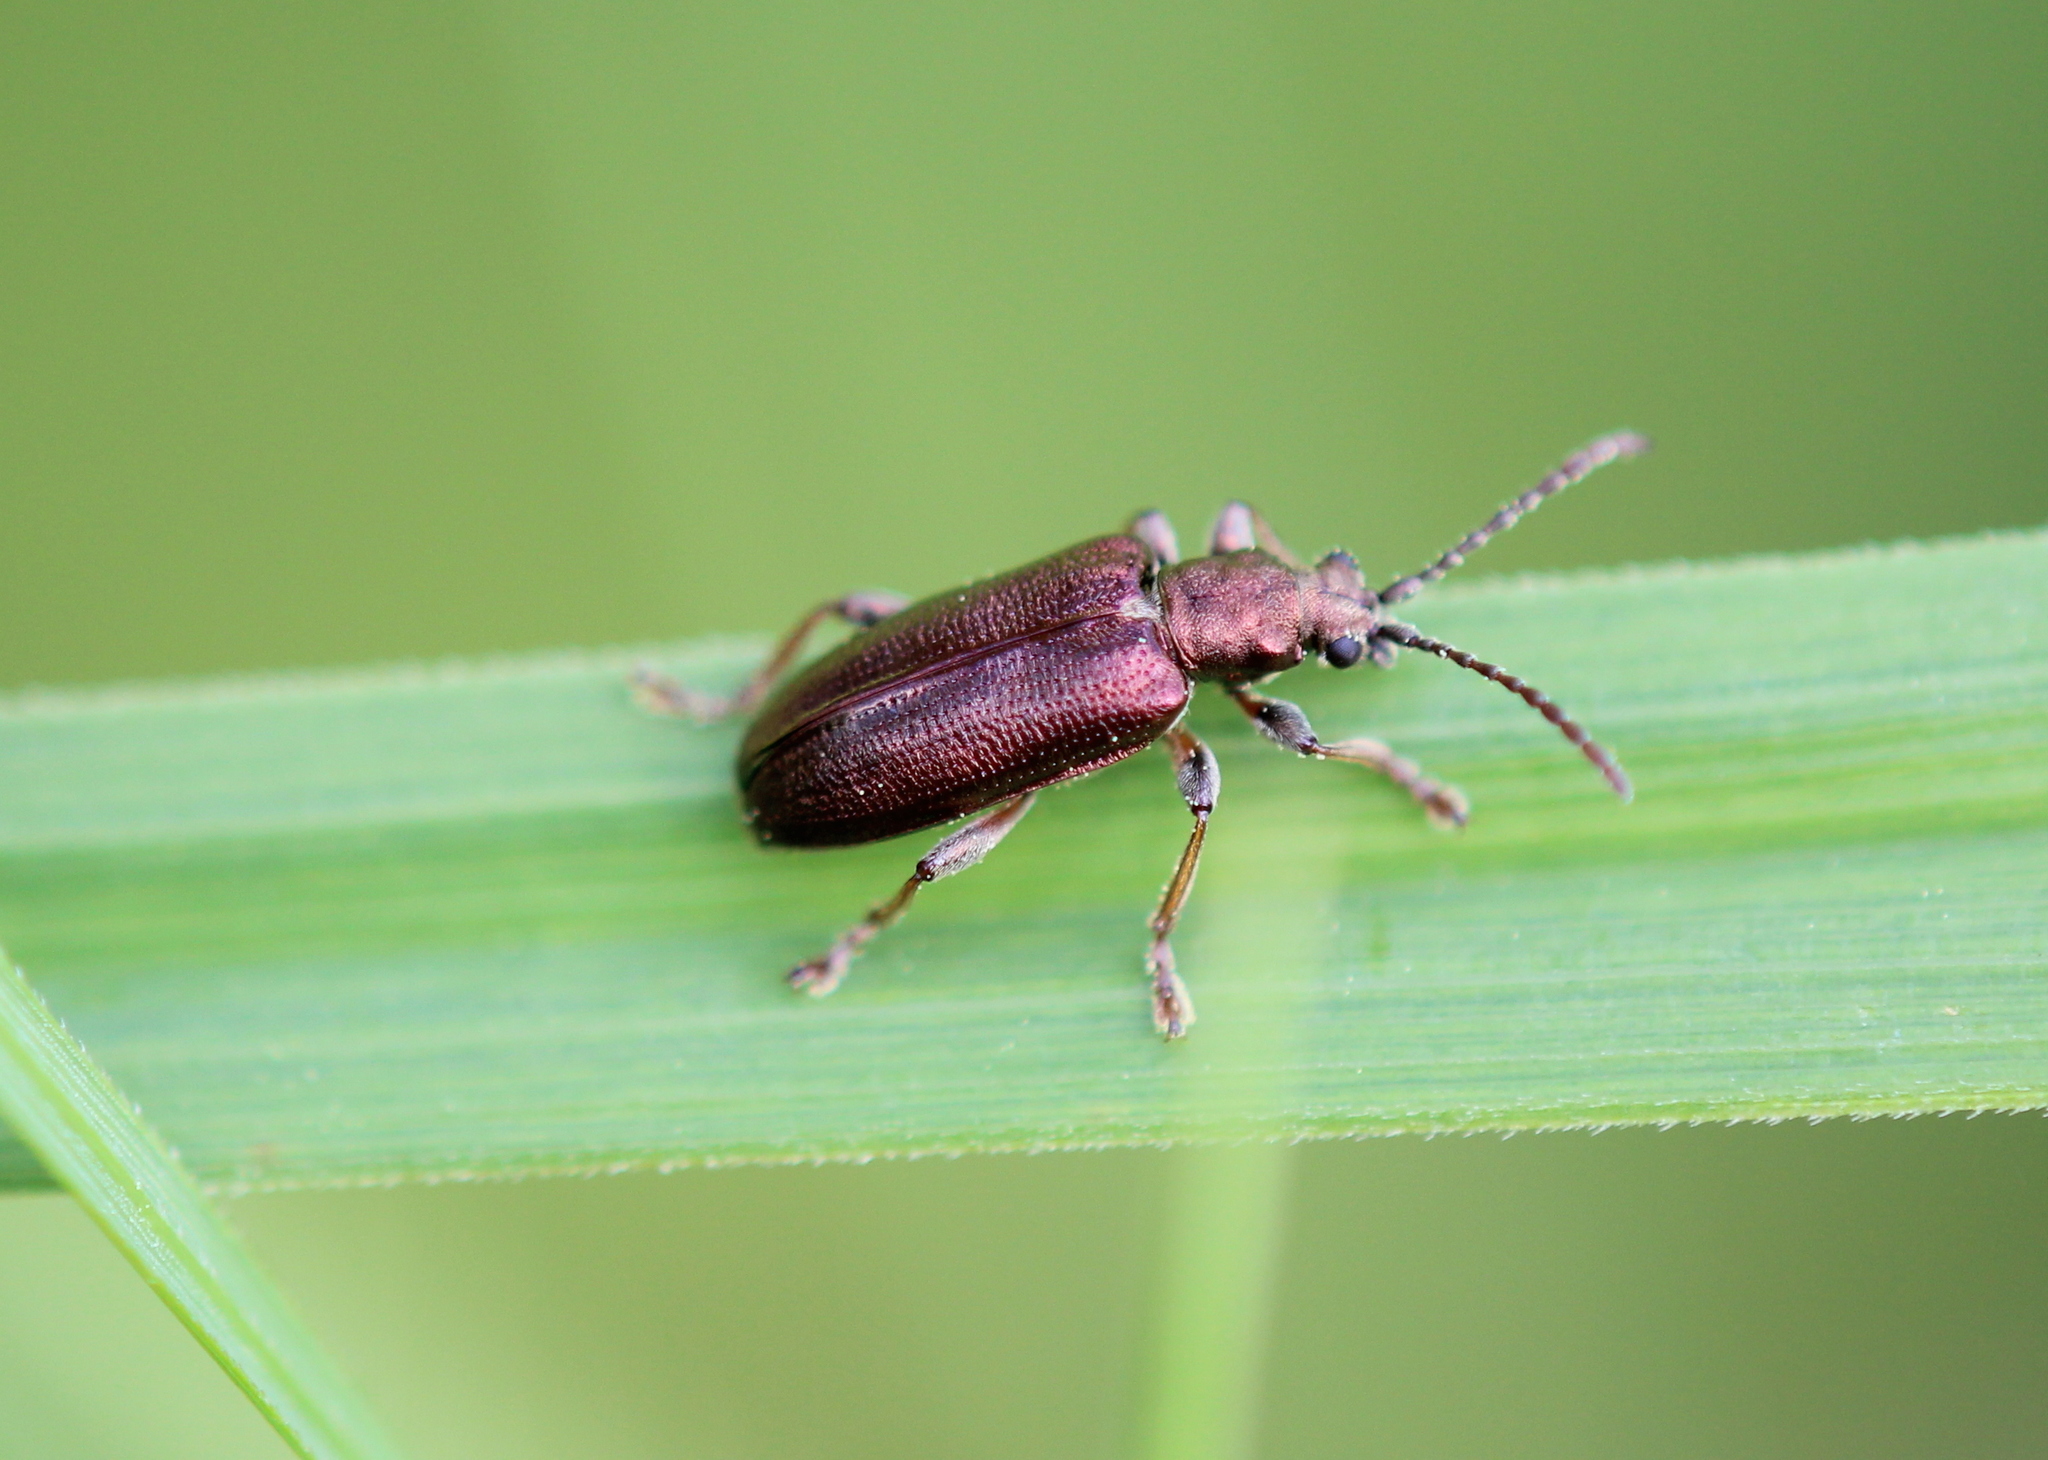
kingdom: Animalia
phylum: Arthropoda
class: Insecta
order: Coleoptera
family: Chrysomelidae
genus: Plateumaris
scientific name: Plateumaris pusilla
